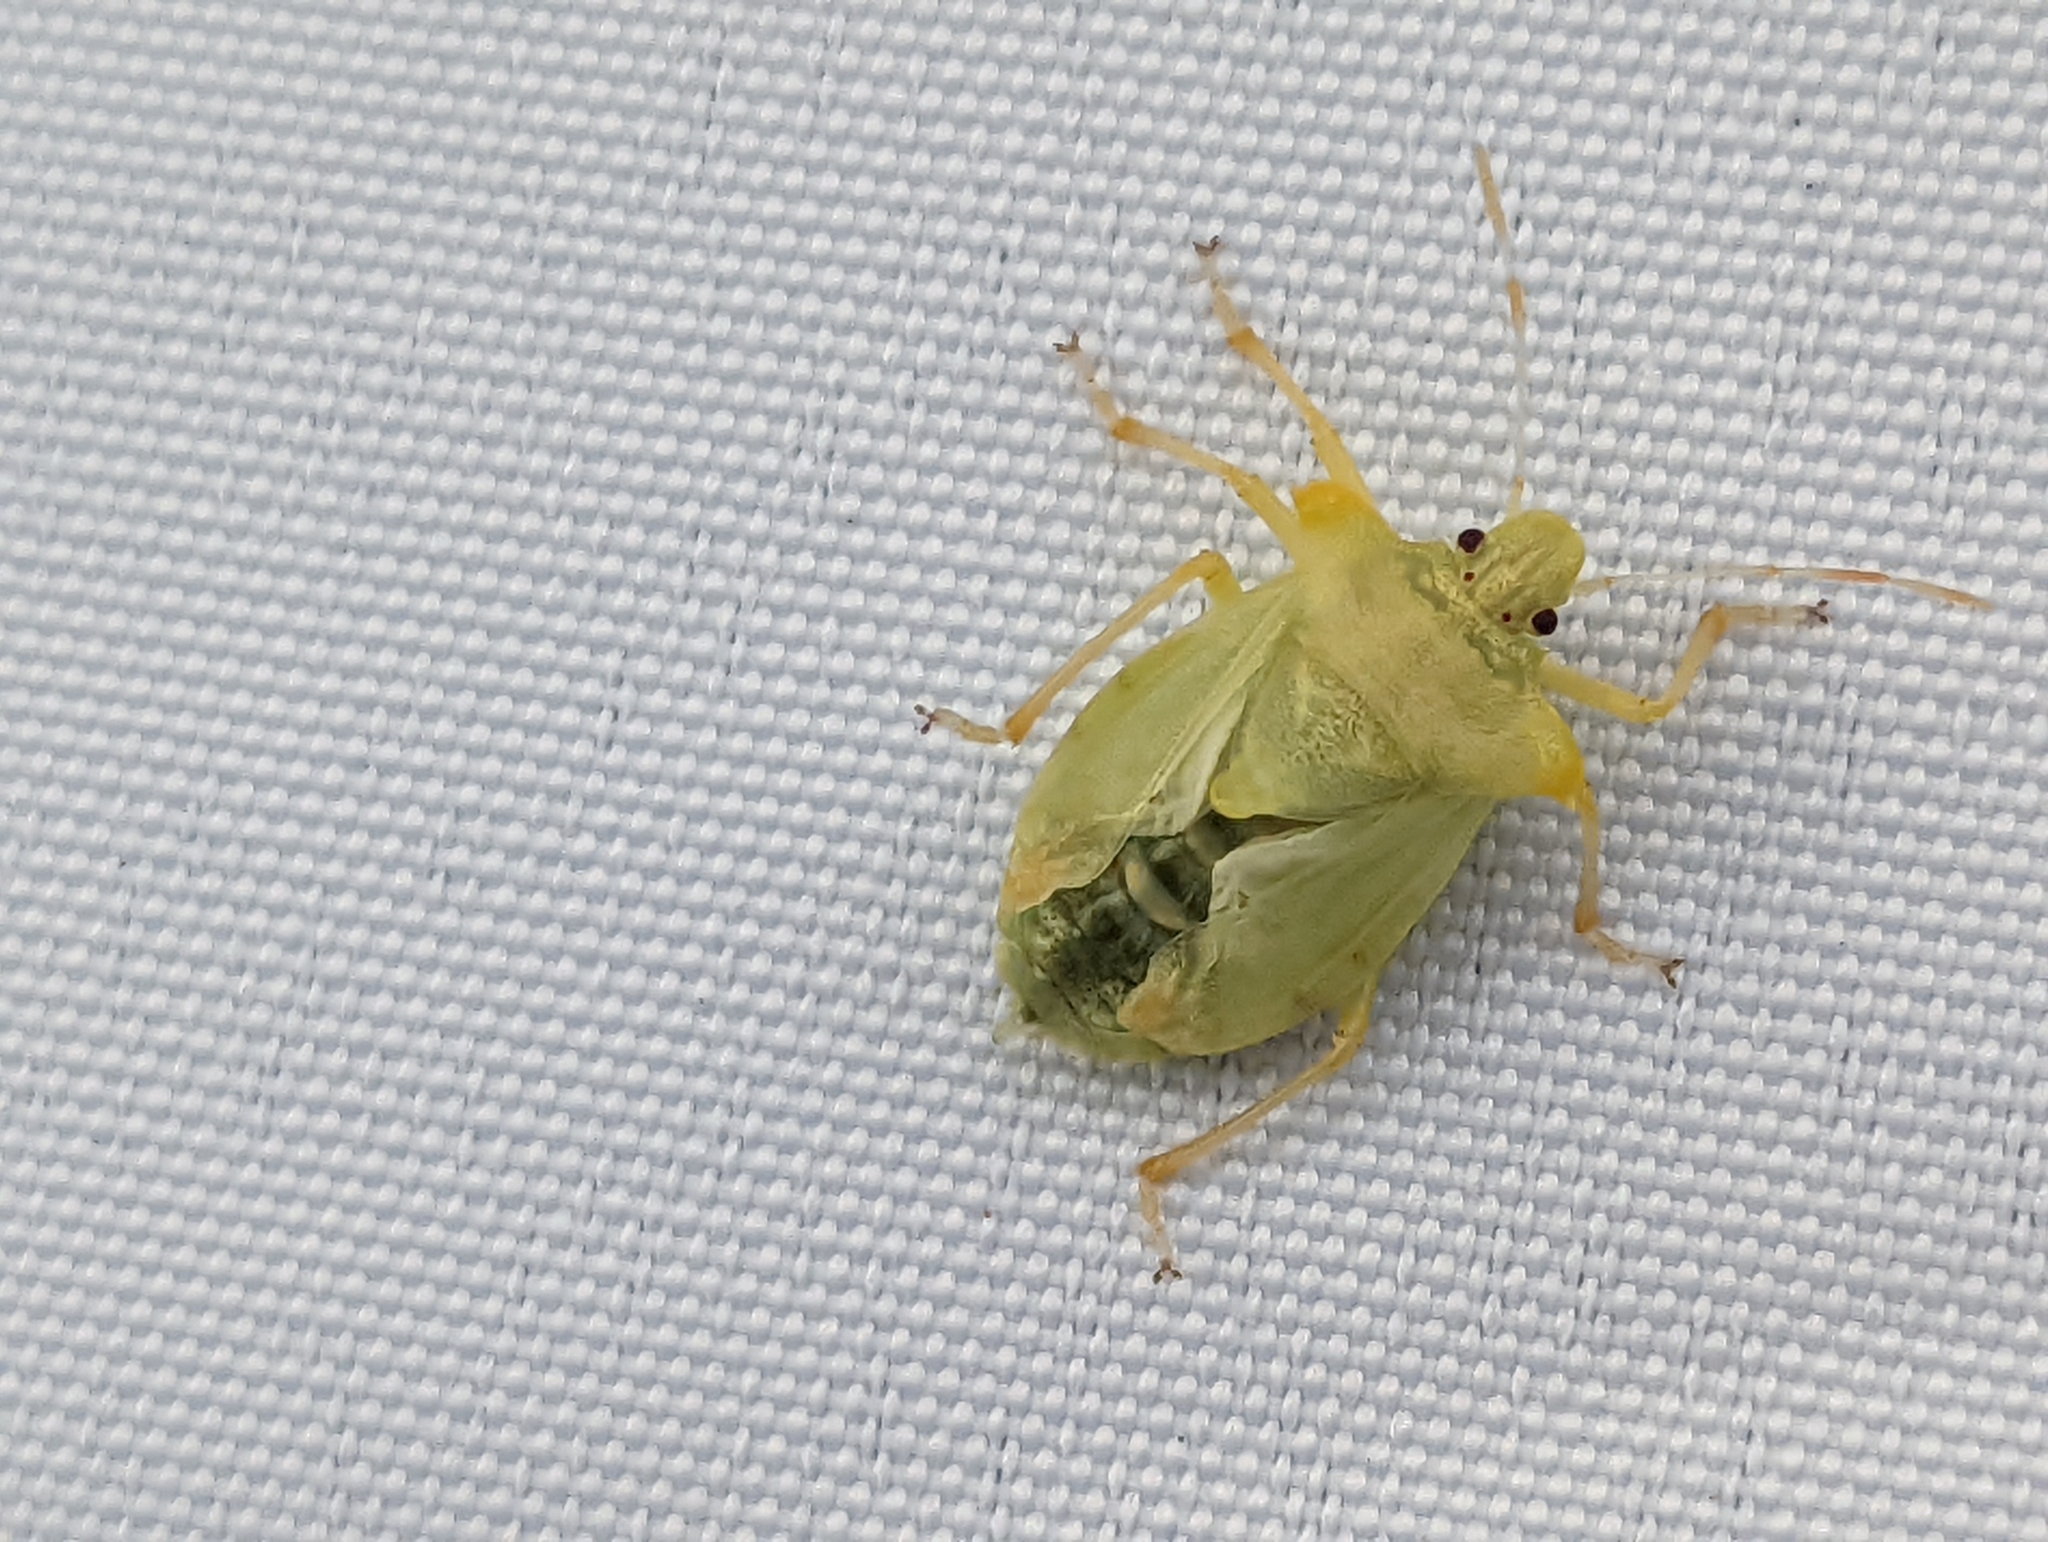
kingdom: Animalia
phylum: Arthropoda
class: Insecta
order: Hemiptera
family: Pentatomidae
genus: Pentatoma
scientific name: Pentatoma rufipes
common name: Forest bug
